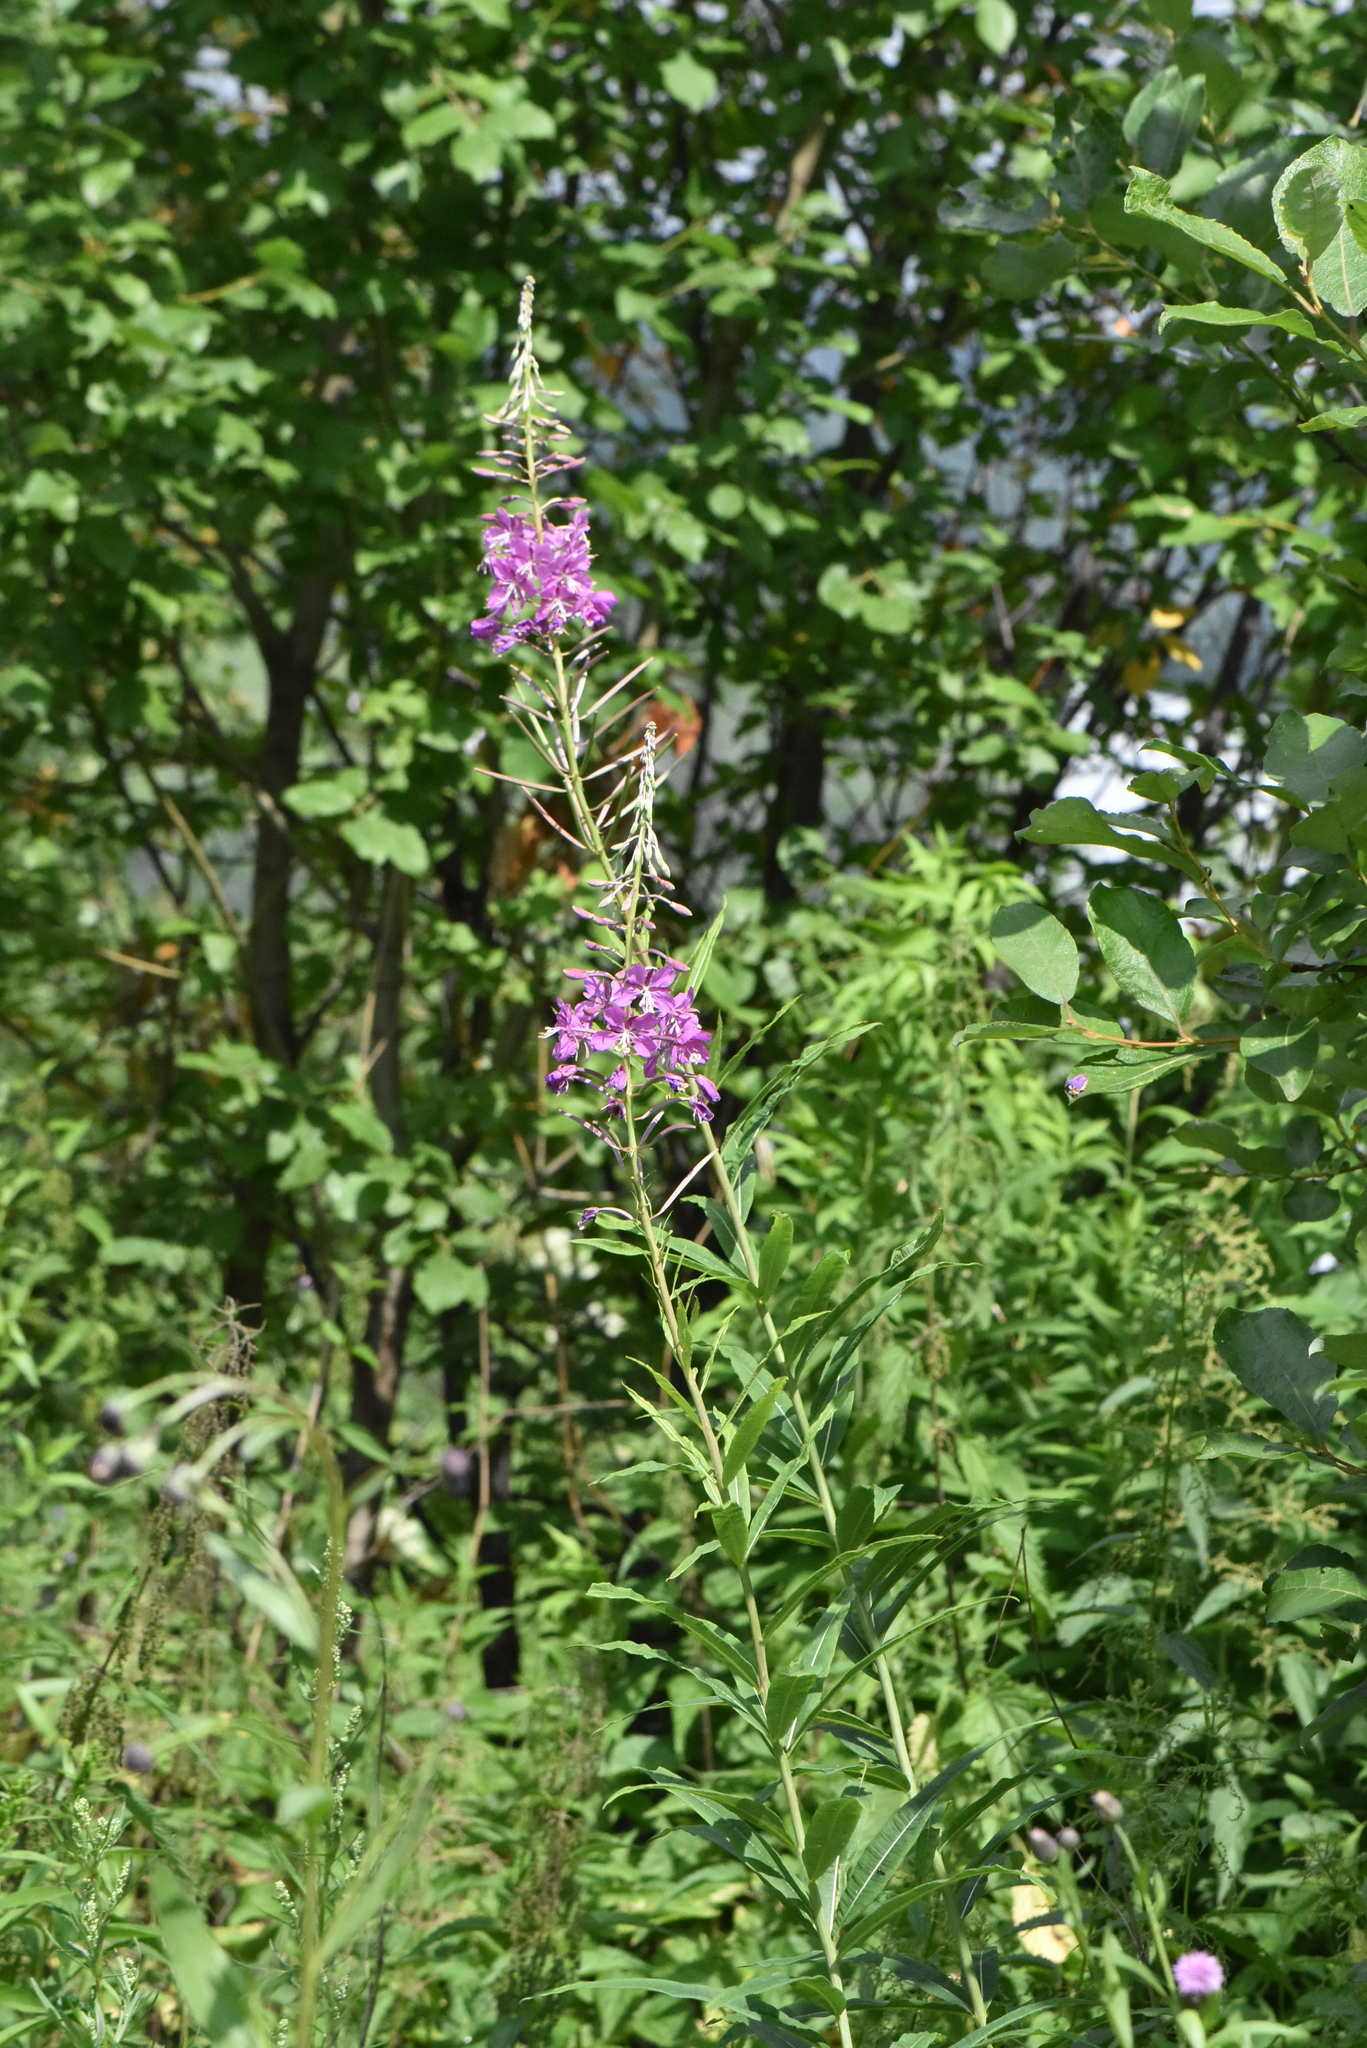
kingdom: Plantae
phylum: Tracheophyta
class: Magnoliopsida
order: Myrtales
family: Onagraceae
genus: Chamaenerion
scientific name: Chamaenerion angustifolium
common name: Fireweed
